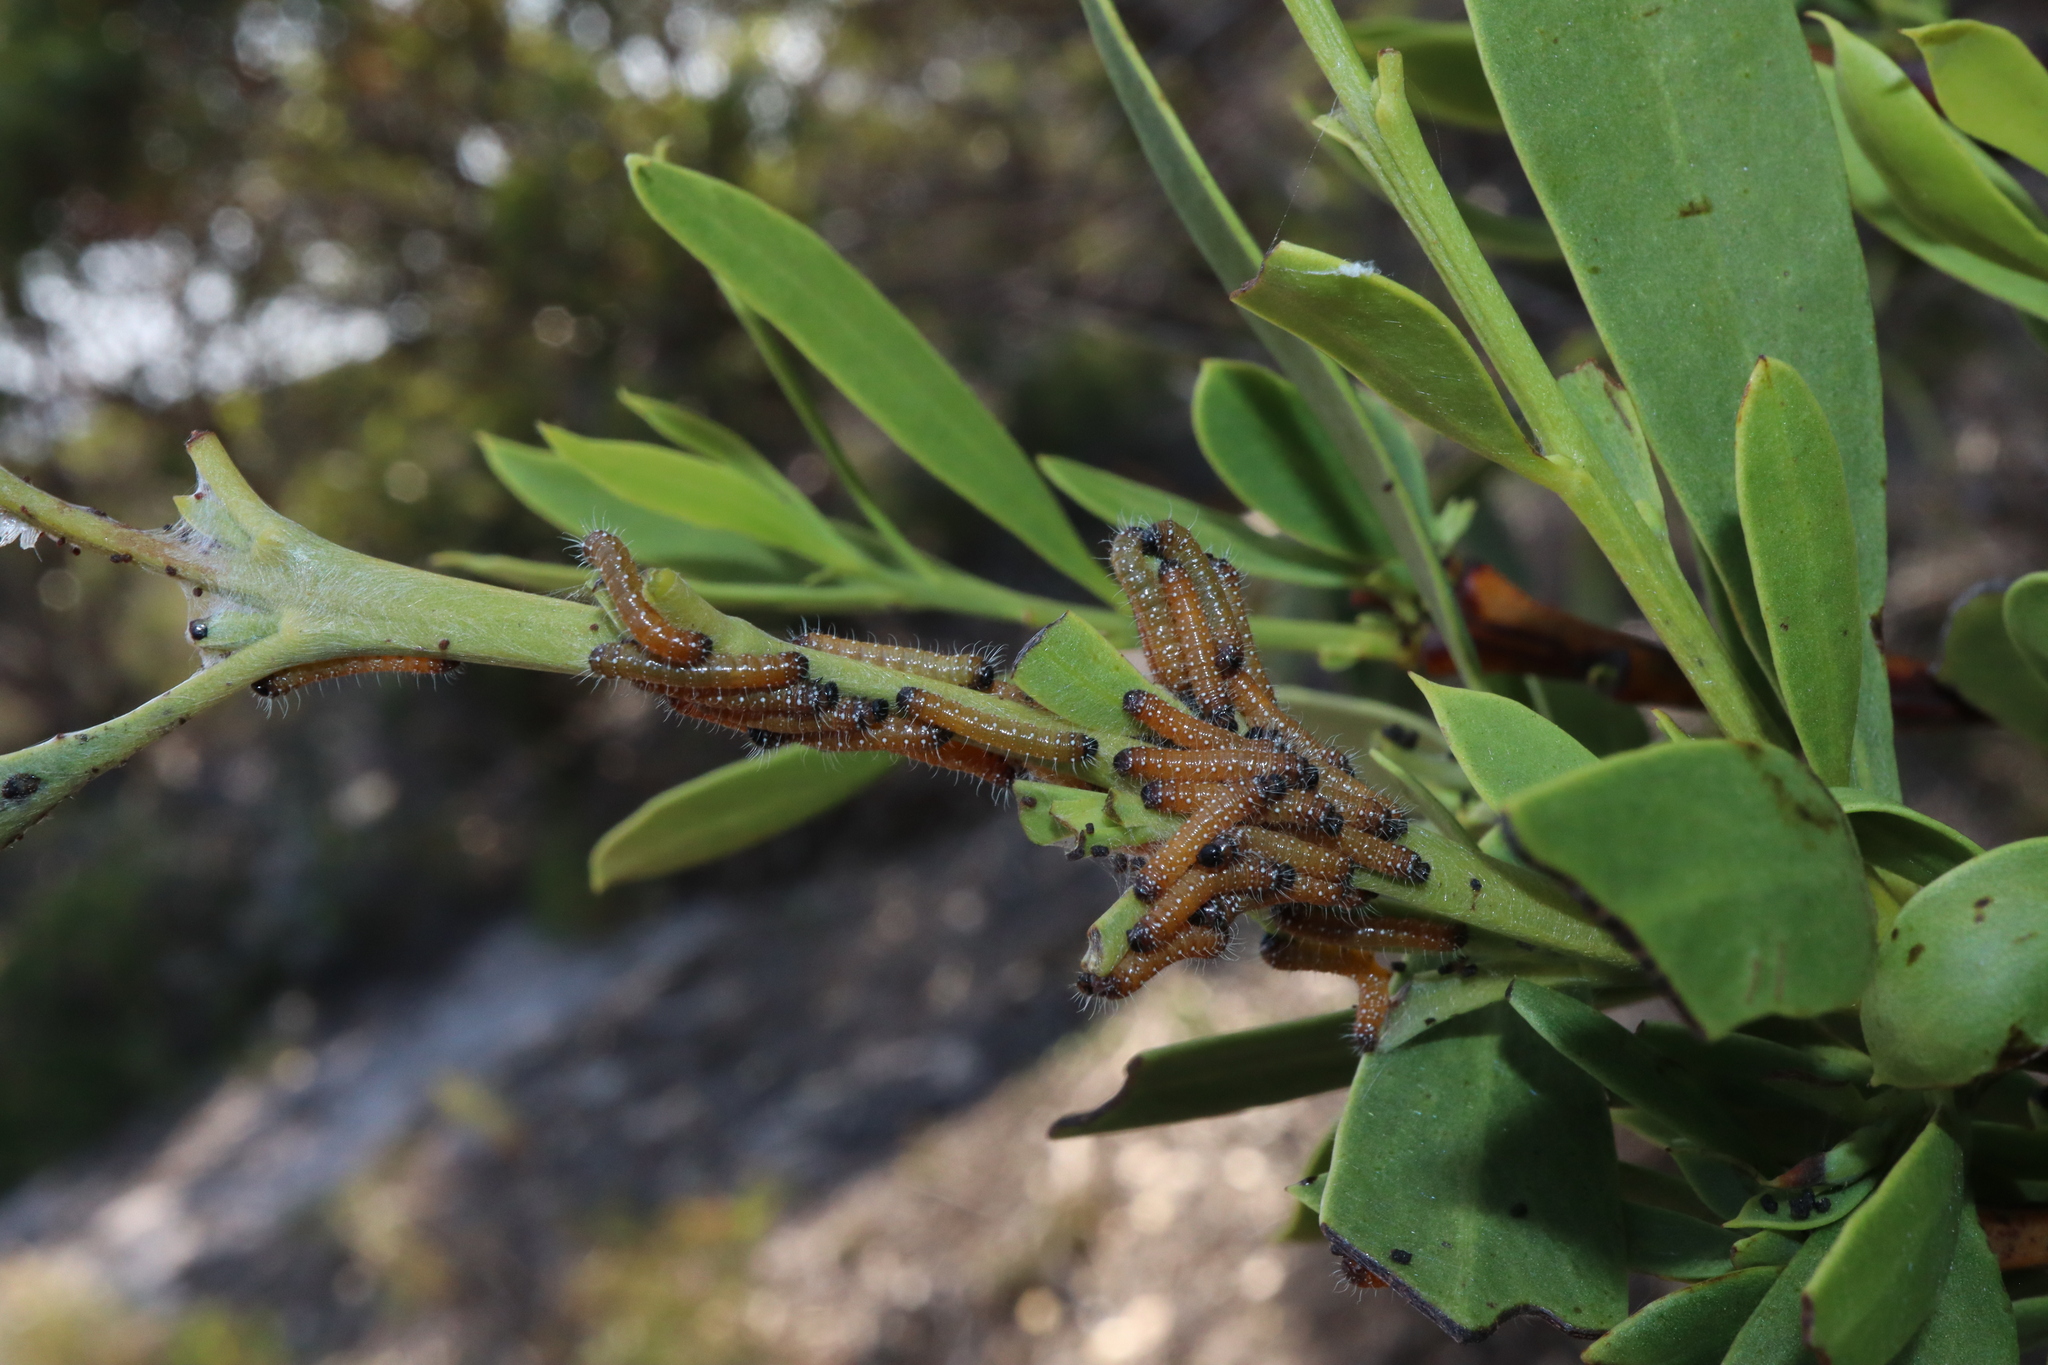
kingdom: Animalia
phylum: Arthropoda
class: Insecta
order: Lepidoptera
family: Pieridae
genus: Delias
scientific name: Delias aganippe
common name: Red-spotted jezebel
